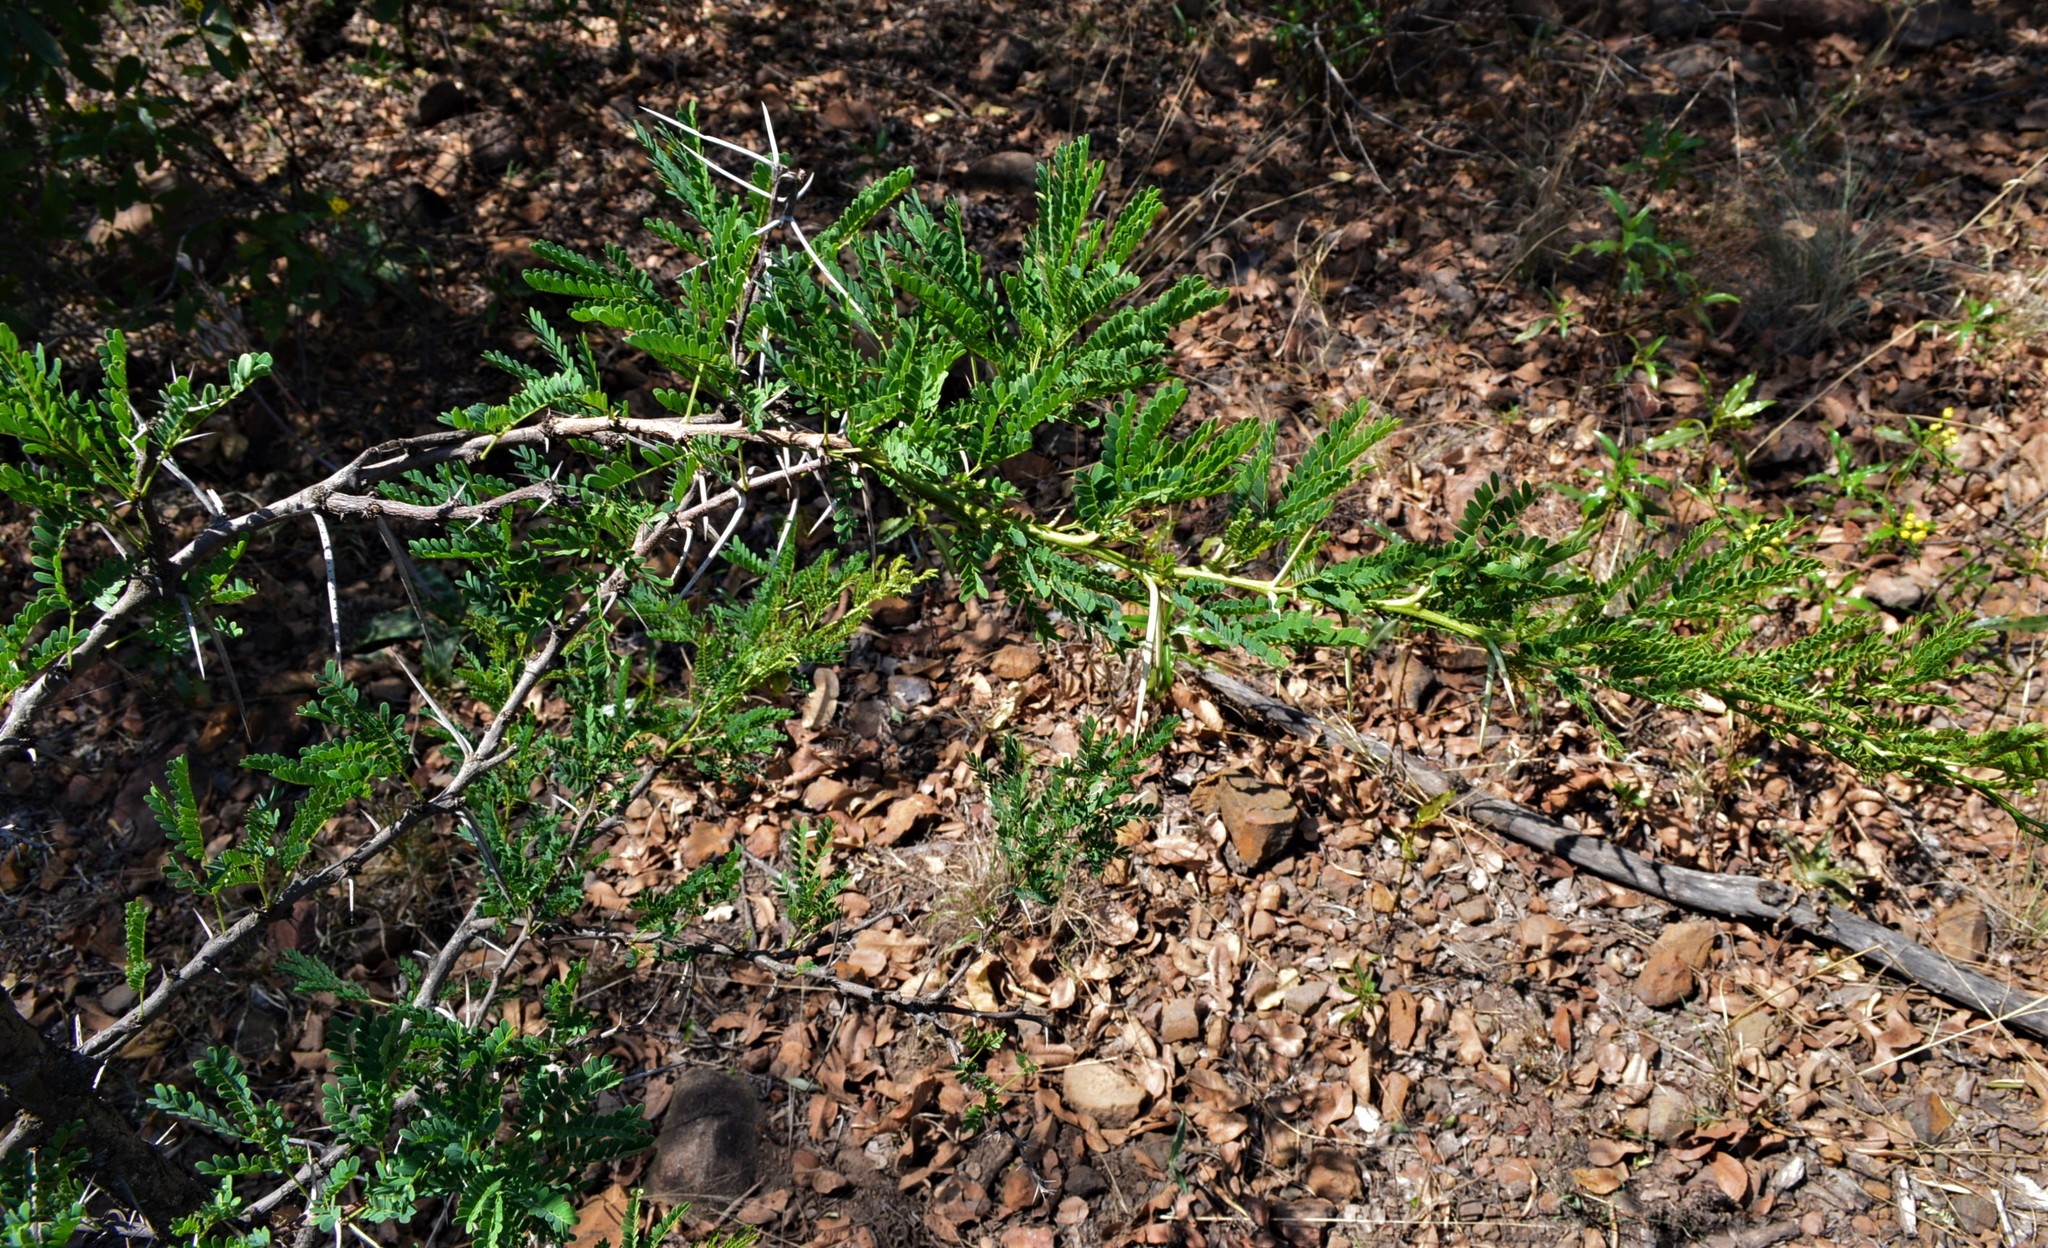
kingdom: Plantae
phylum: Tracheophyta
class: Magnoliopsida
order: Fabales
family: Fabaceae
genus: Vachellia
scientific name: Vachellia karroo
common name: Sweet thorn
